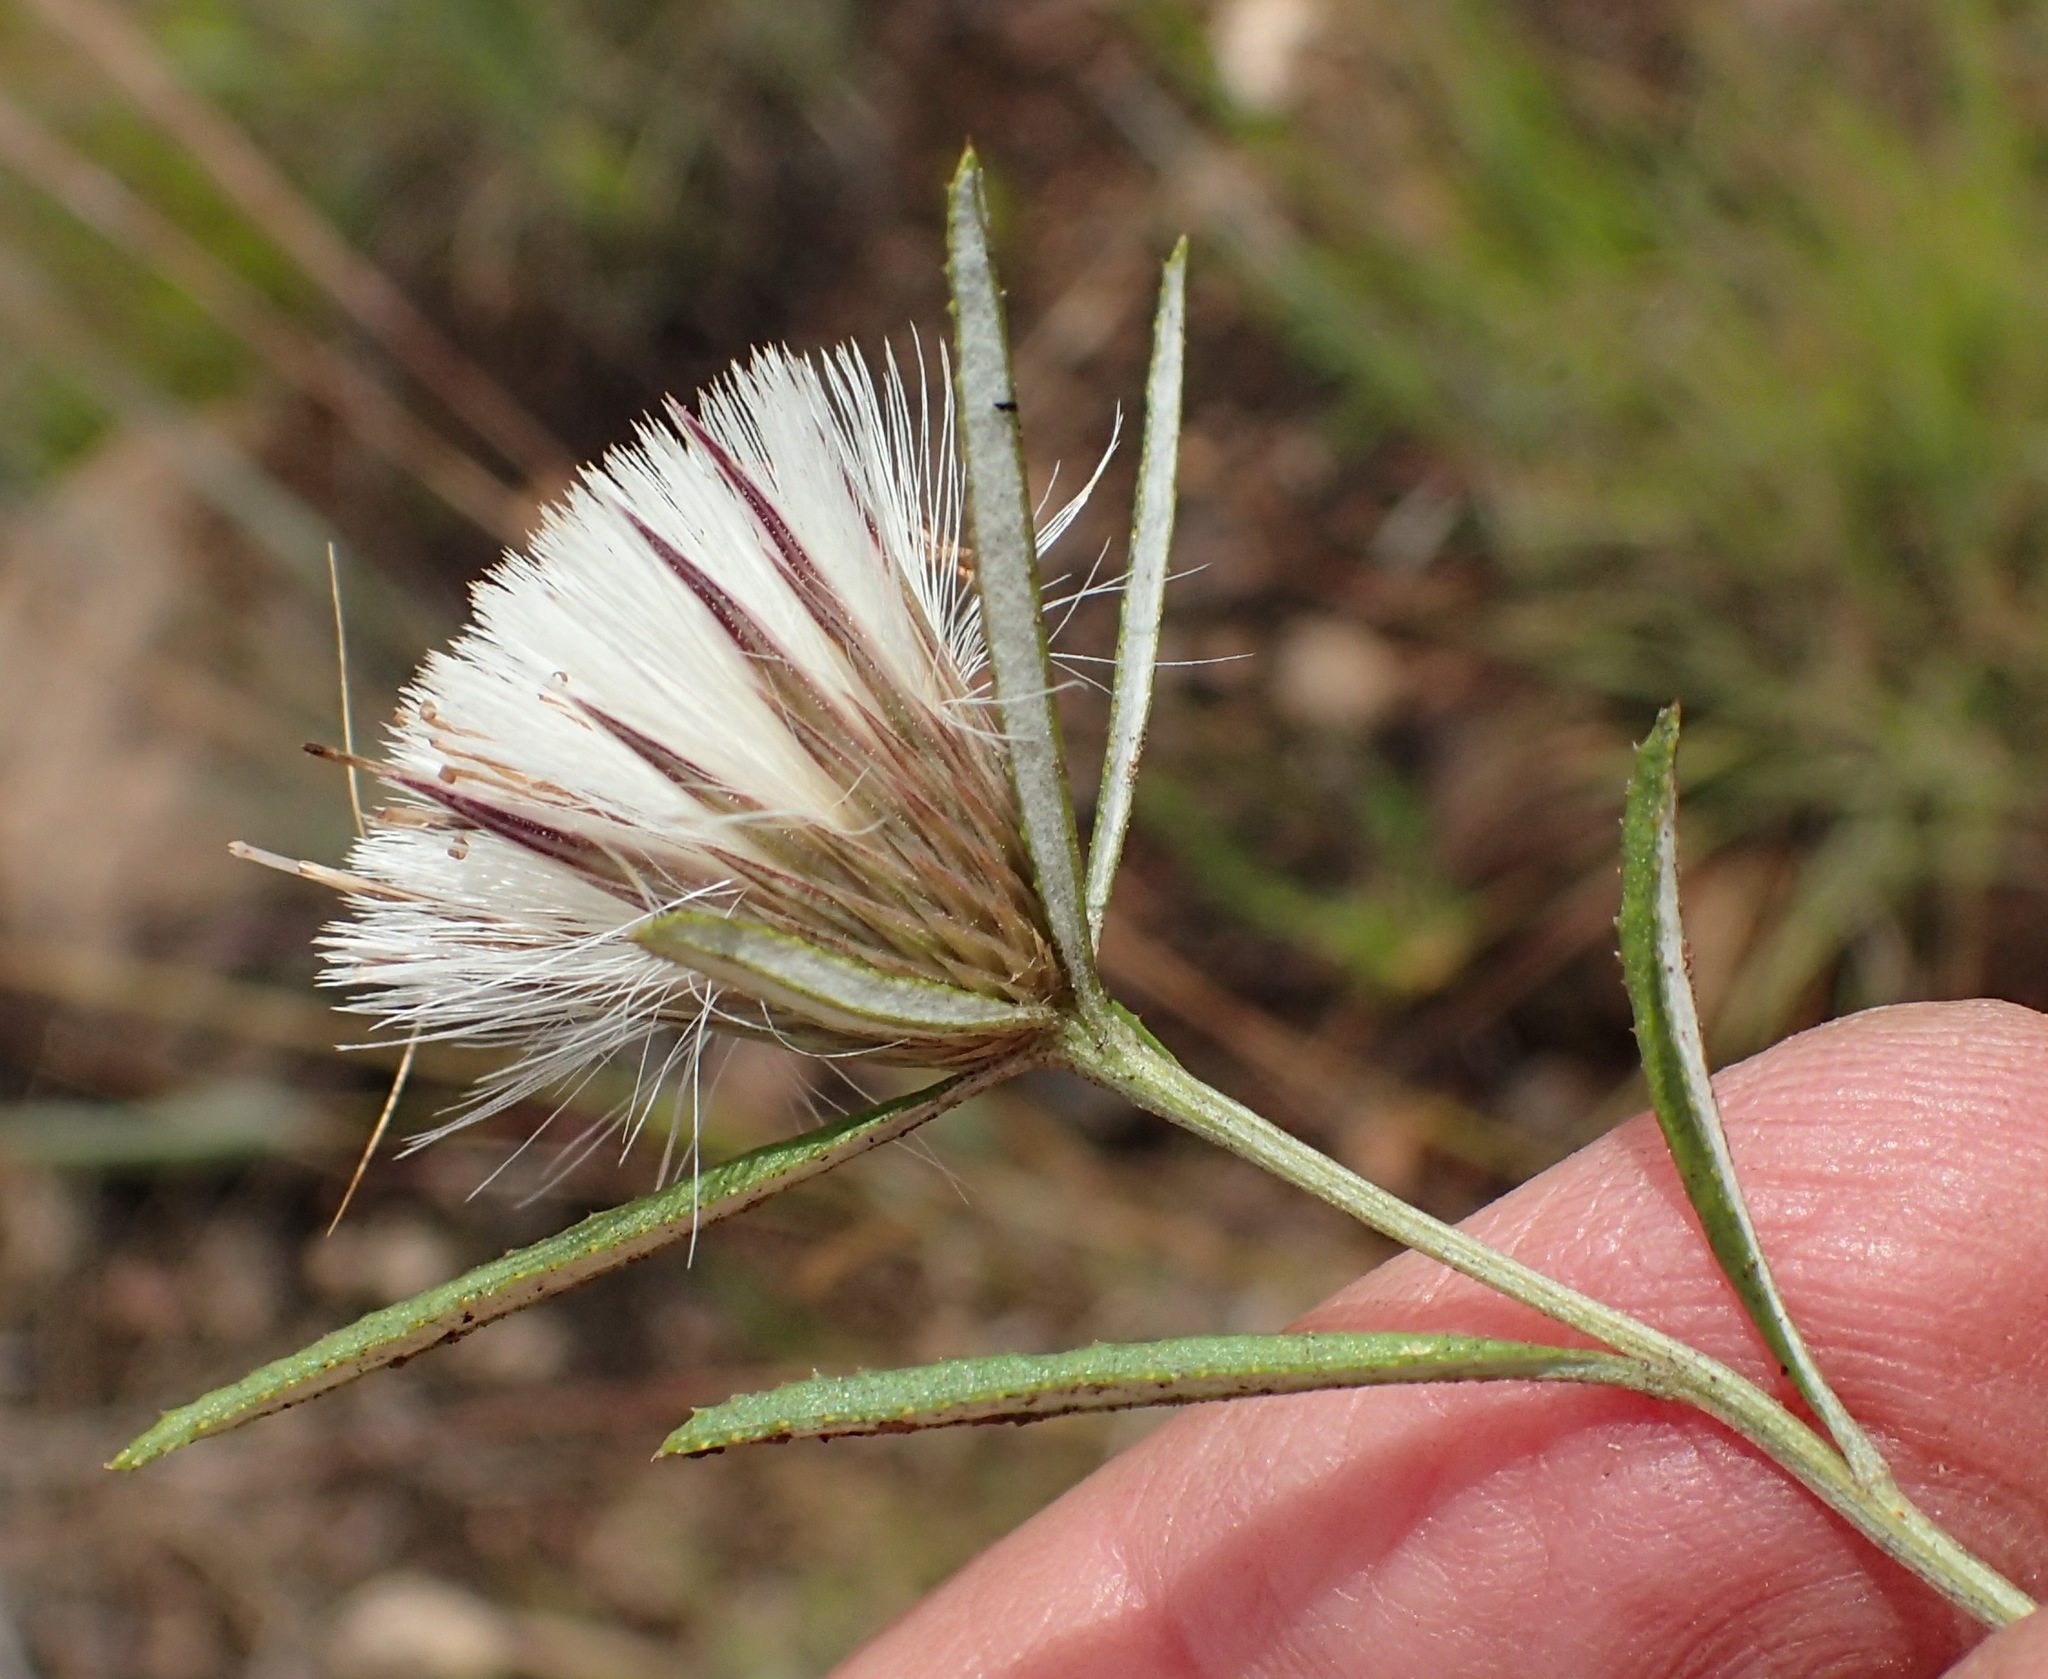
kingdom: Plantae
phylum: Tracheophyta
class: Magnoliopsida
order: Asterales
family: Asteraceae
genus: Dicoma
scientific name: Dicoma anomala
